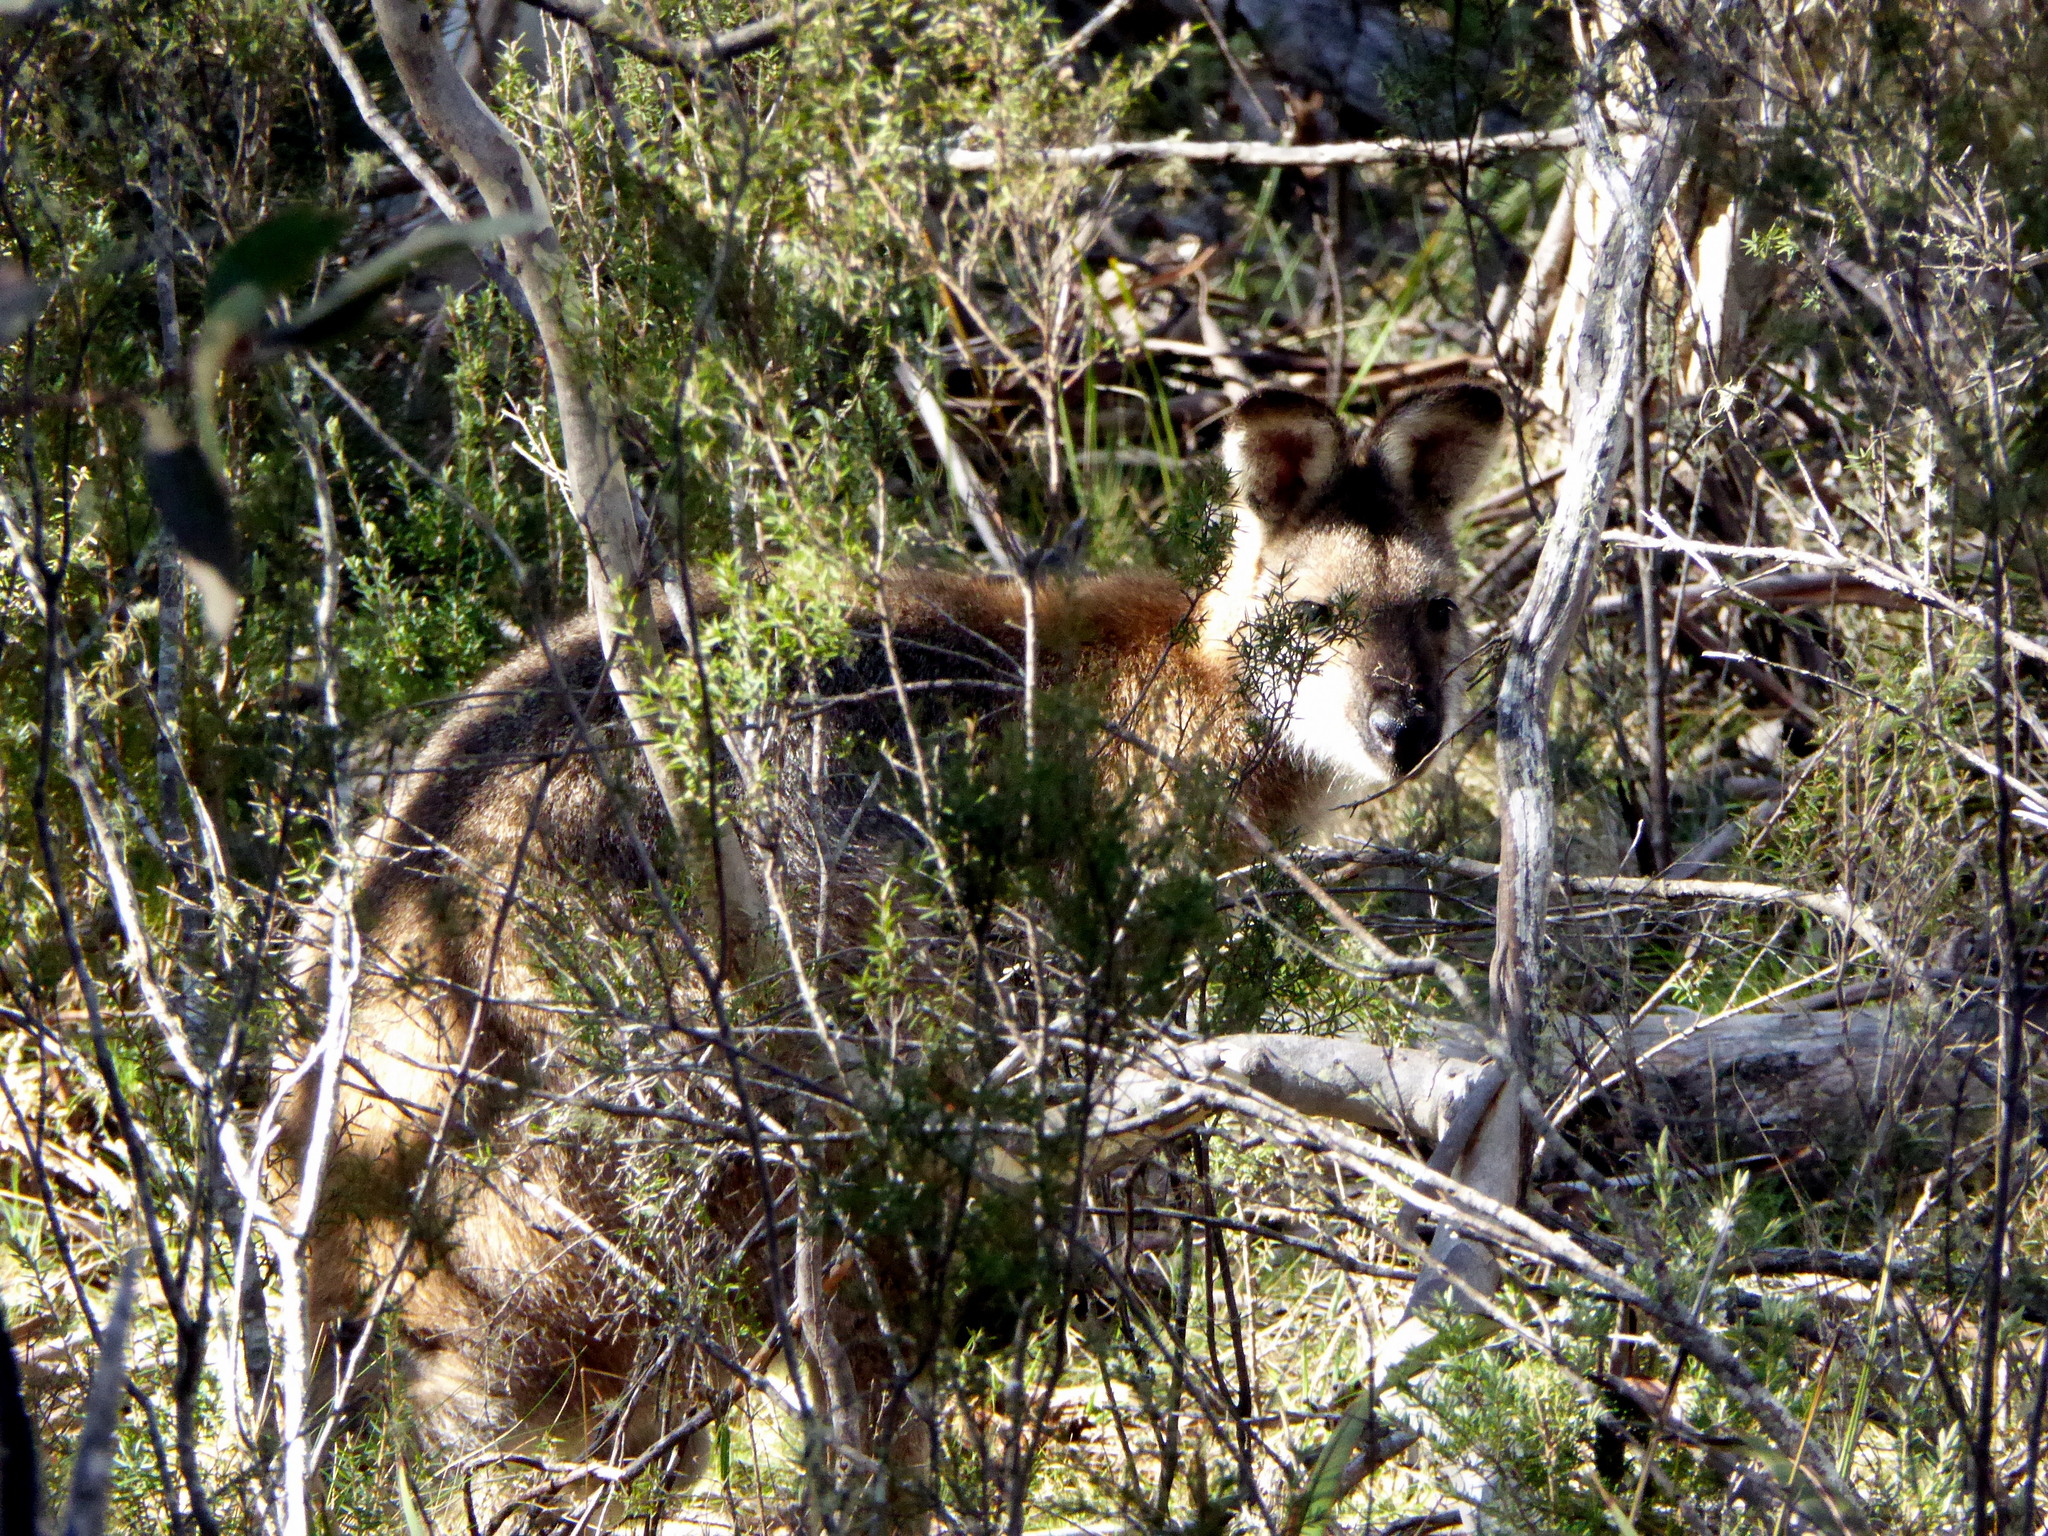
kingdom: Animalia
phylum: Chordata
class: Mammalia
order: Diprotodontia
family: Macropodidae
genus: Notamacropus
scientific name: Notamacropus rufogriseus
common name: Red-necked wallaby
